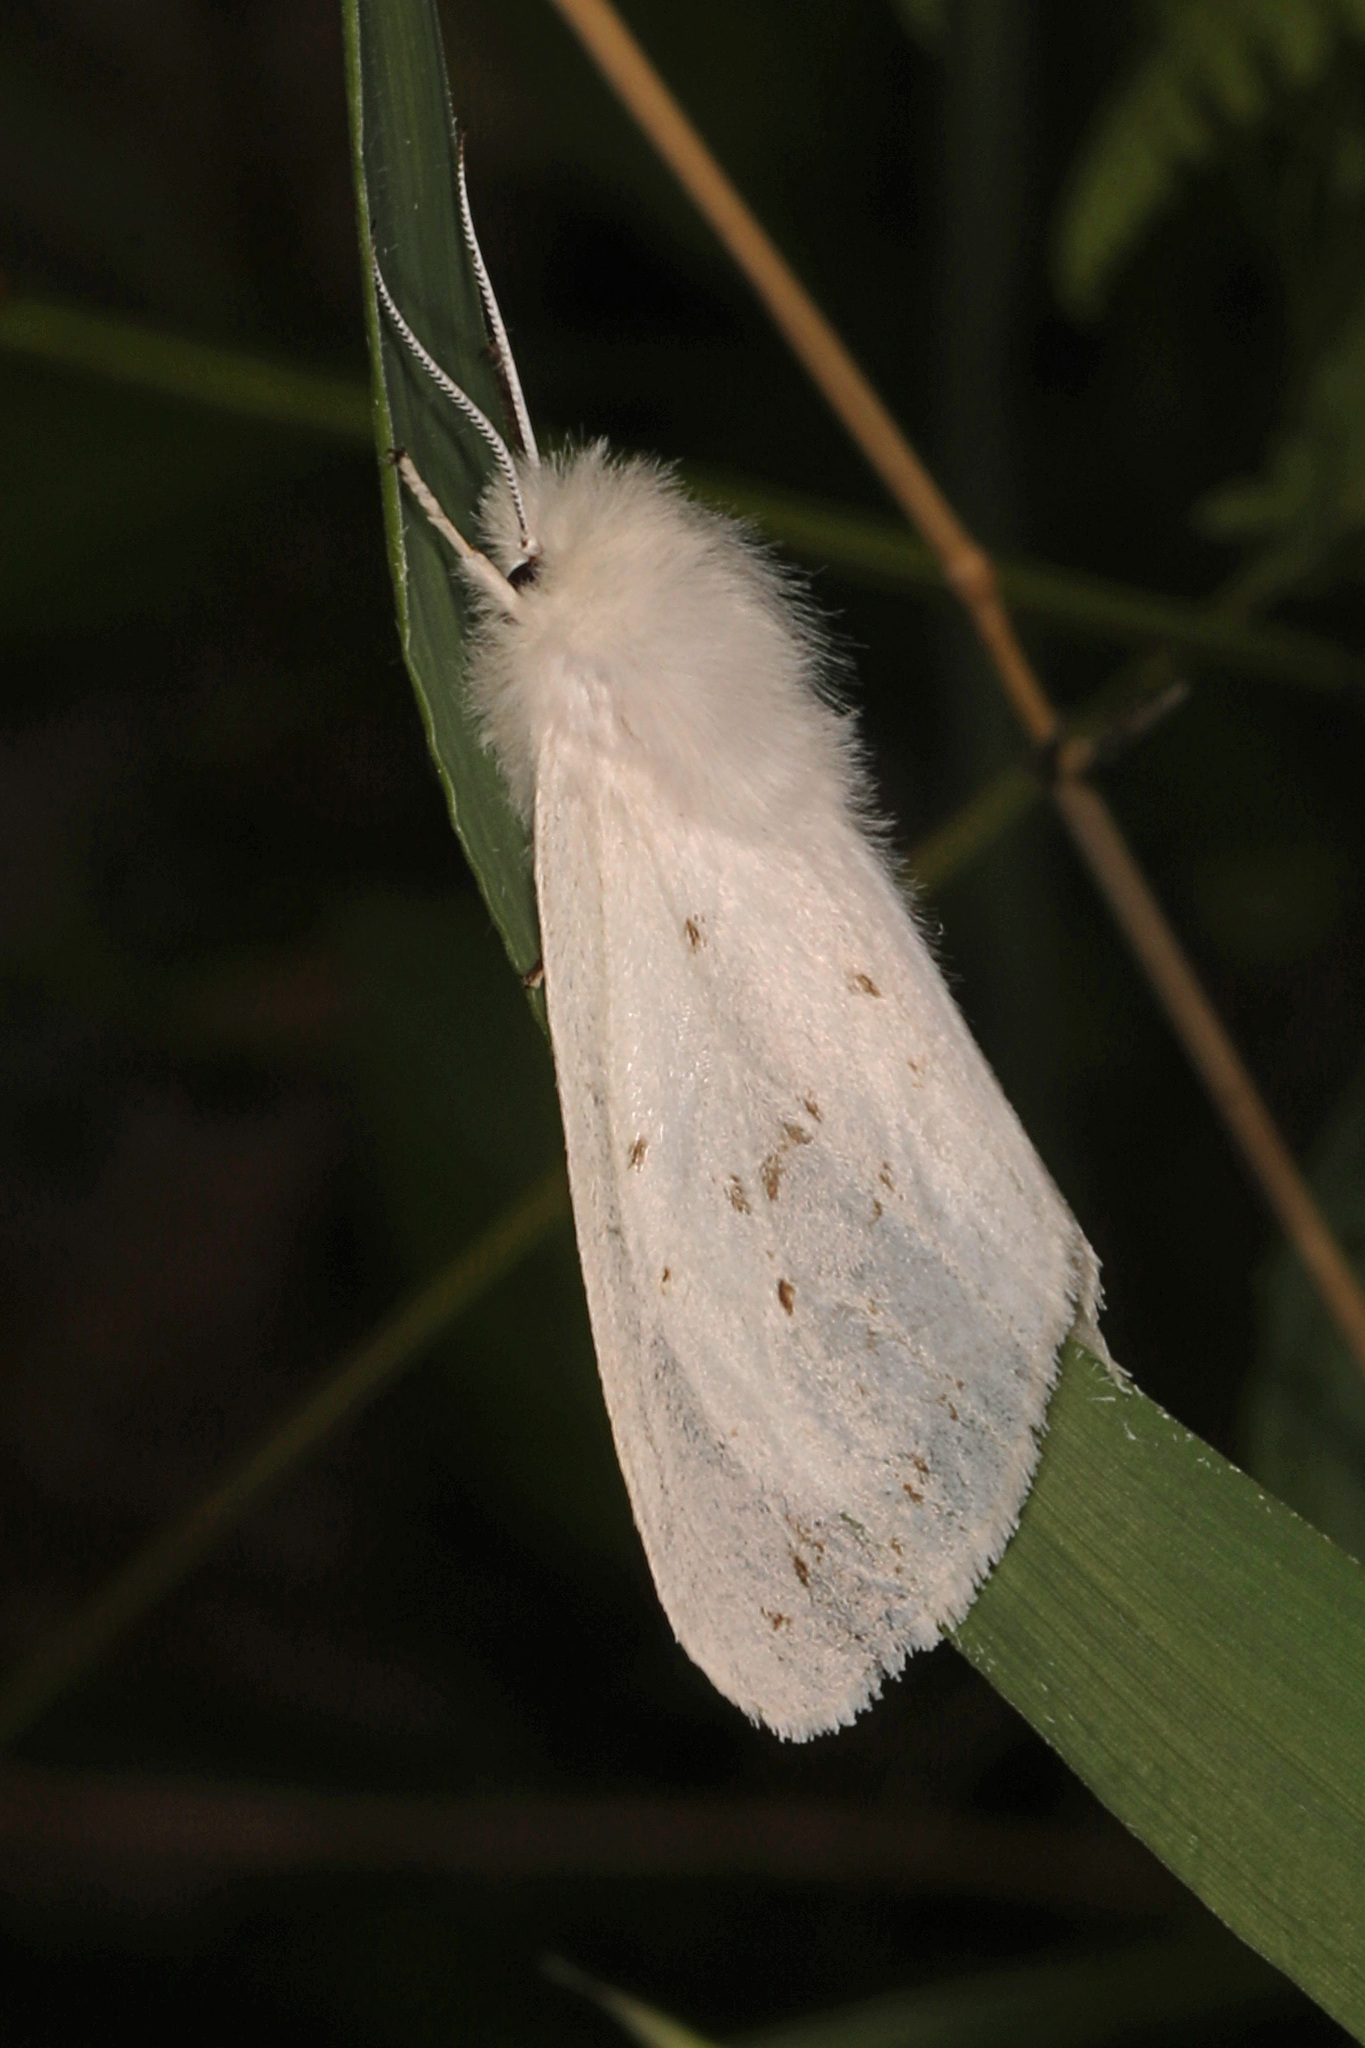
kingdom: Animalia
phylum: Arthropoda
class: Insecta
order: Lepidoptera
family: Erebidae
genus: Spilosoma
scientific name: Spilosoma congrua
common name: Agreeable tiger moth
